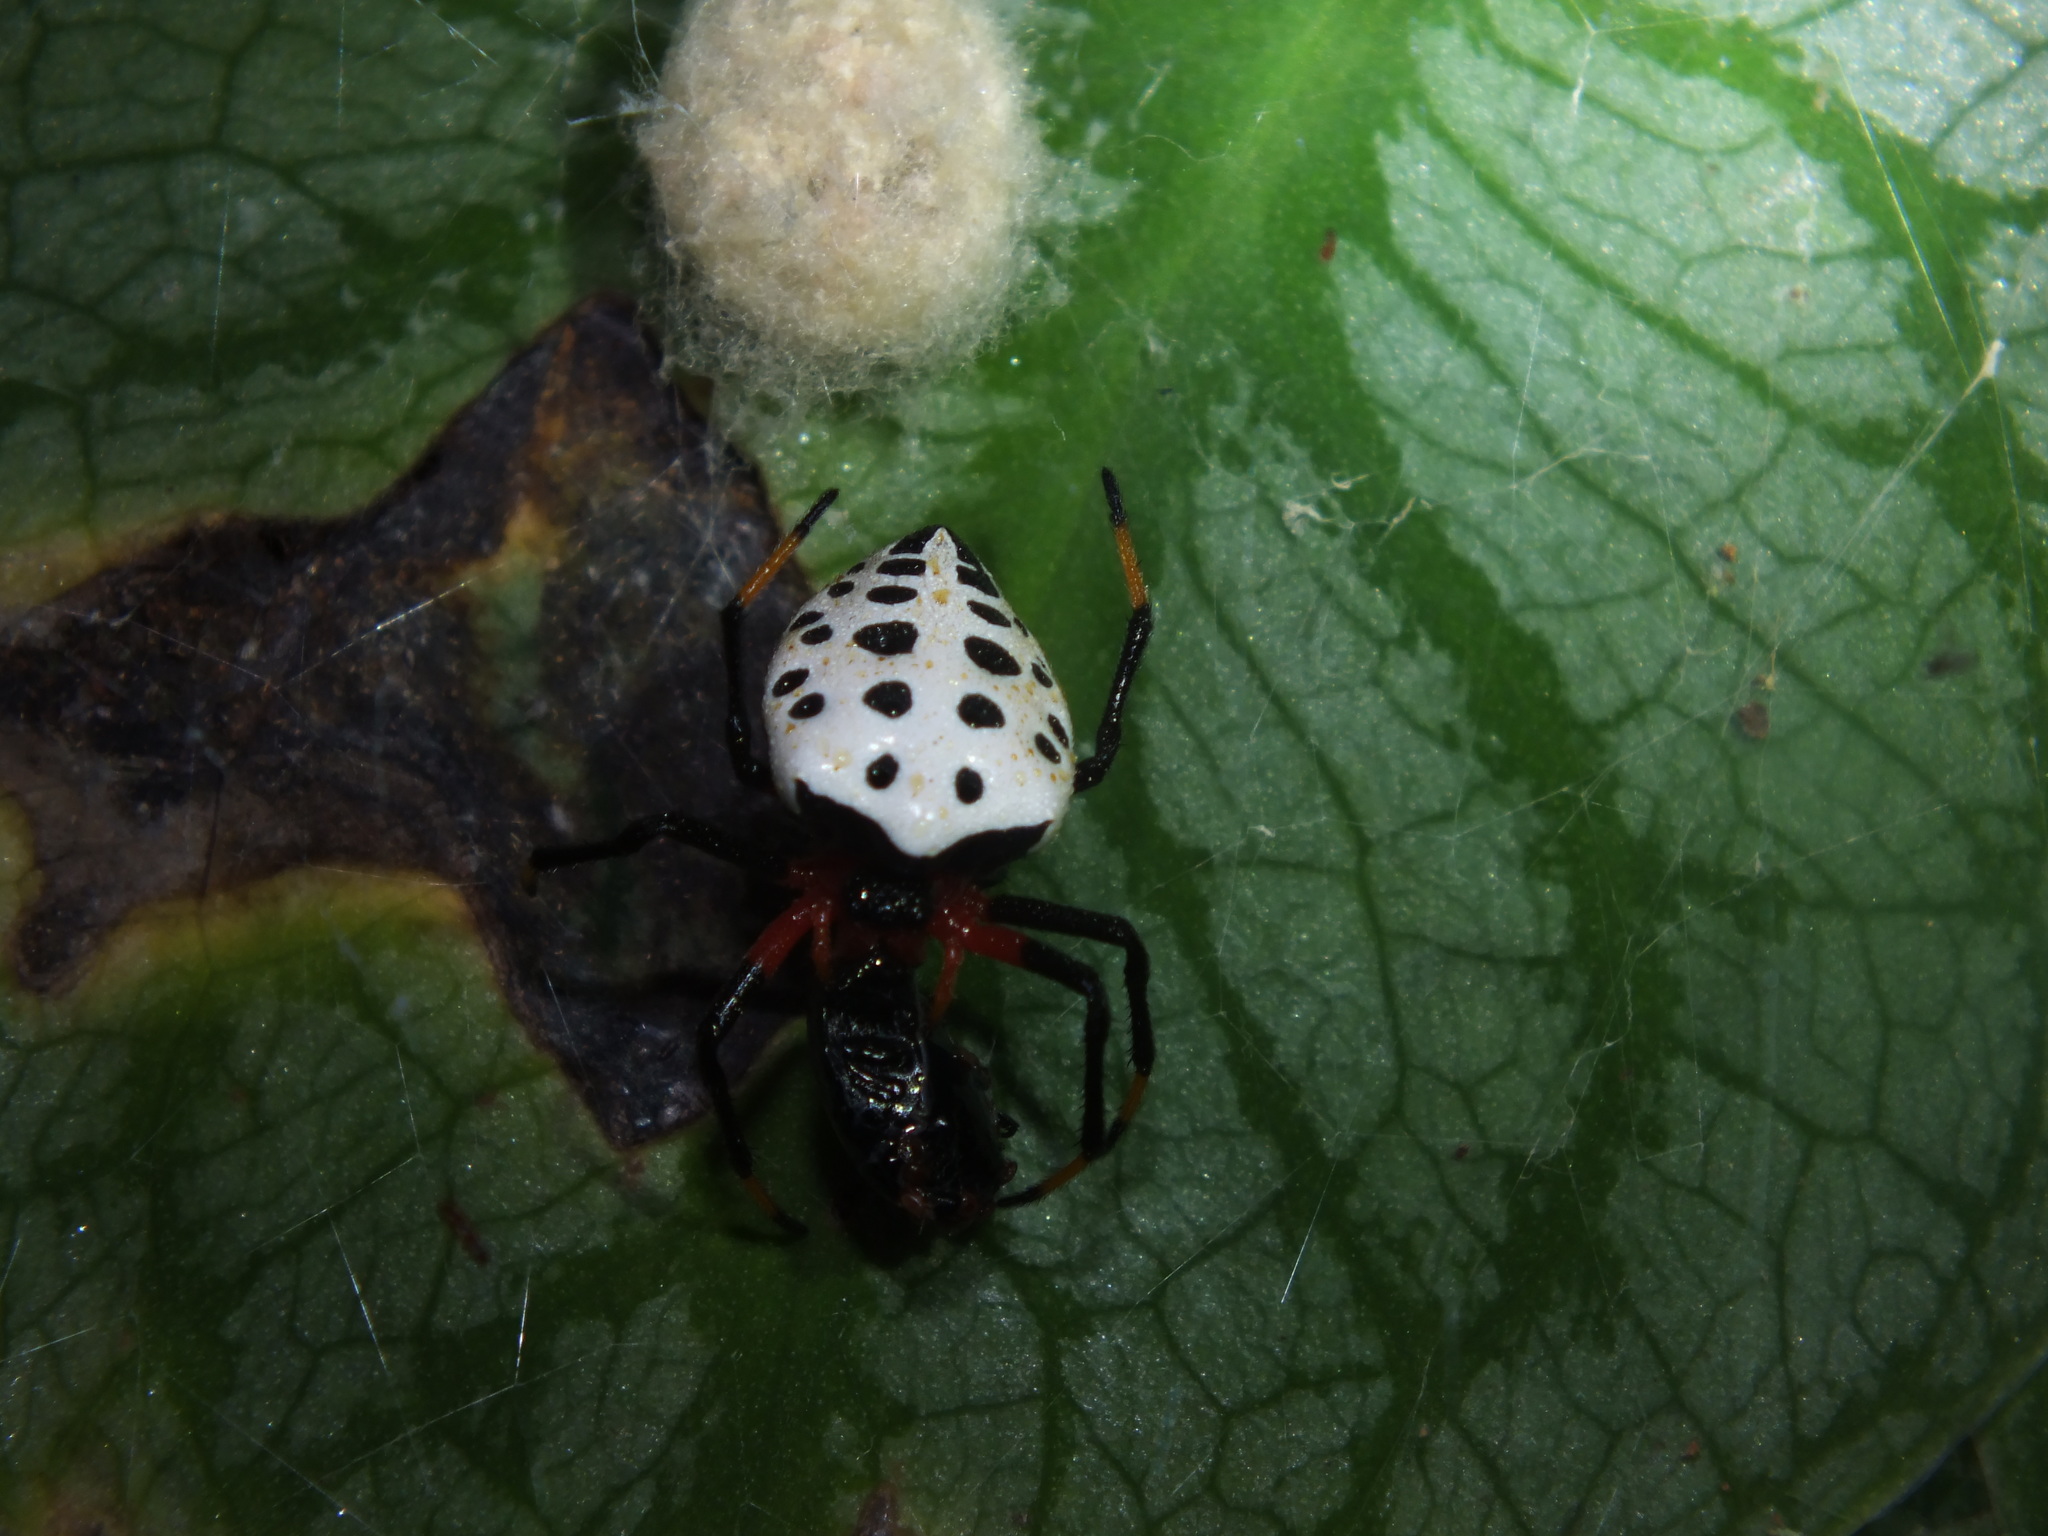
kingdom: Animalia
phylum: Arthropoda
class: Arachnida
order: Araneae
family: Araneidae
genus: Alpaida
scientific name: Alpaida tabula
